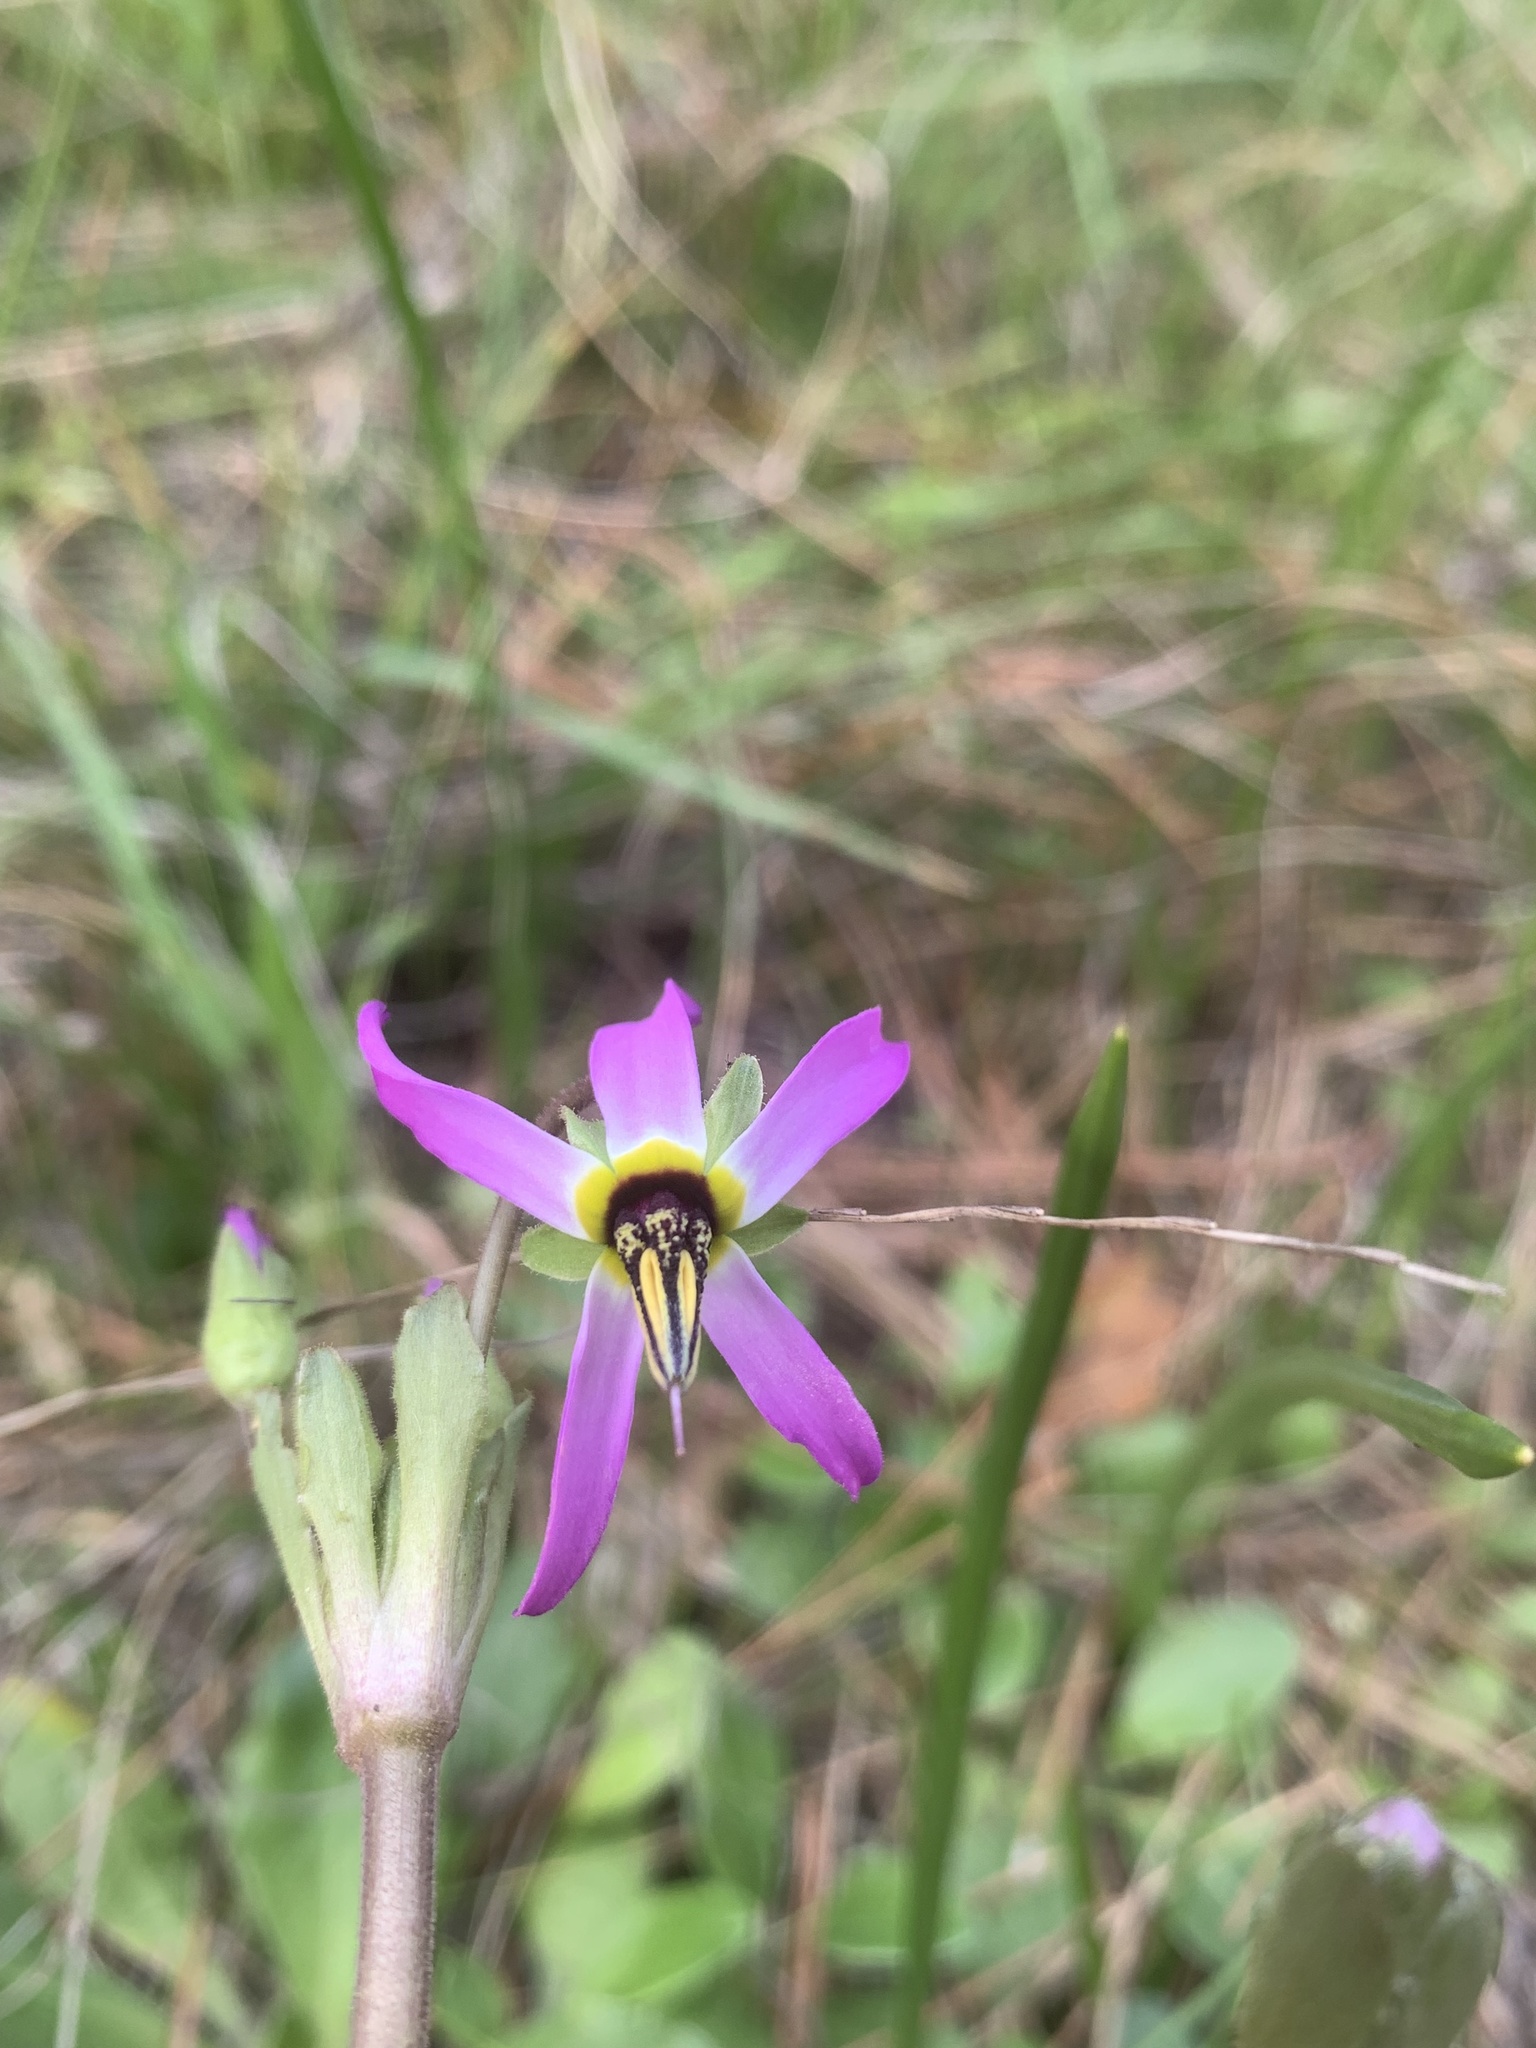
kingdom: Plantae
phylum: Tracheophyta
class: Magnoliopsida
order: Ericales
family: Primulaceae
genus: Dodecatheon
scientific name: Dodecatheon clevelandii
